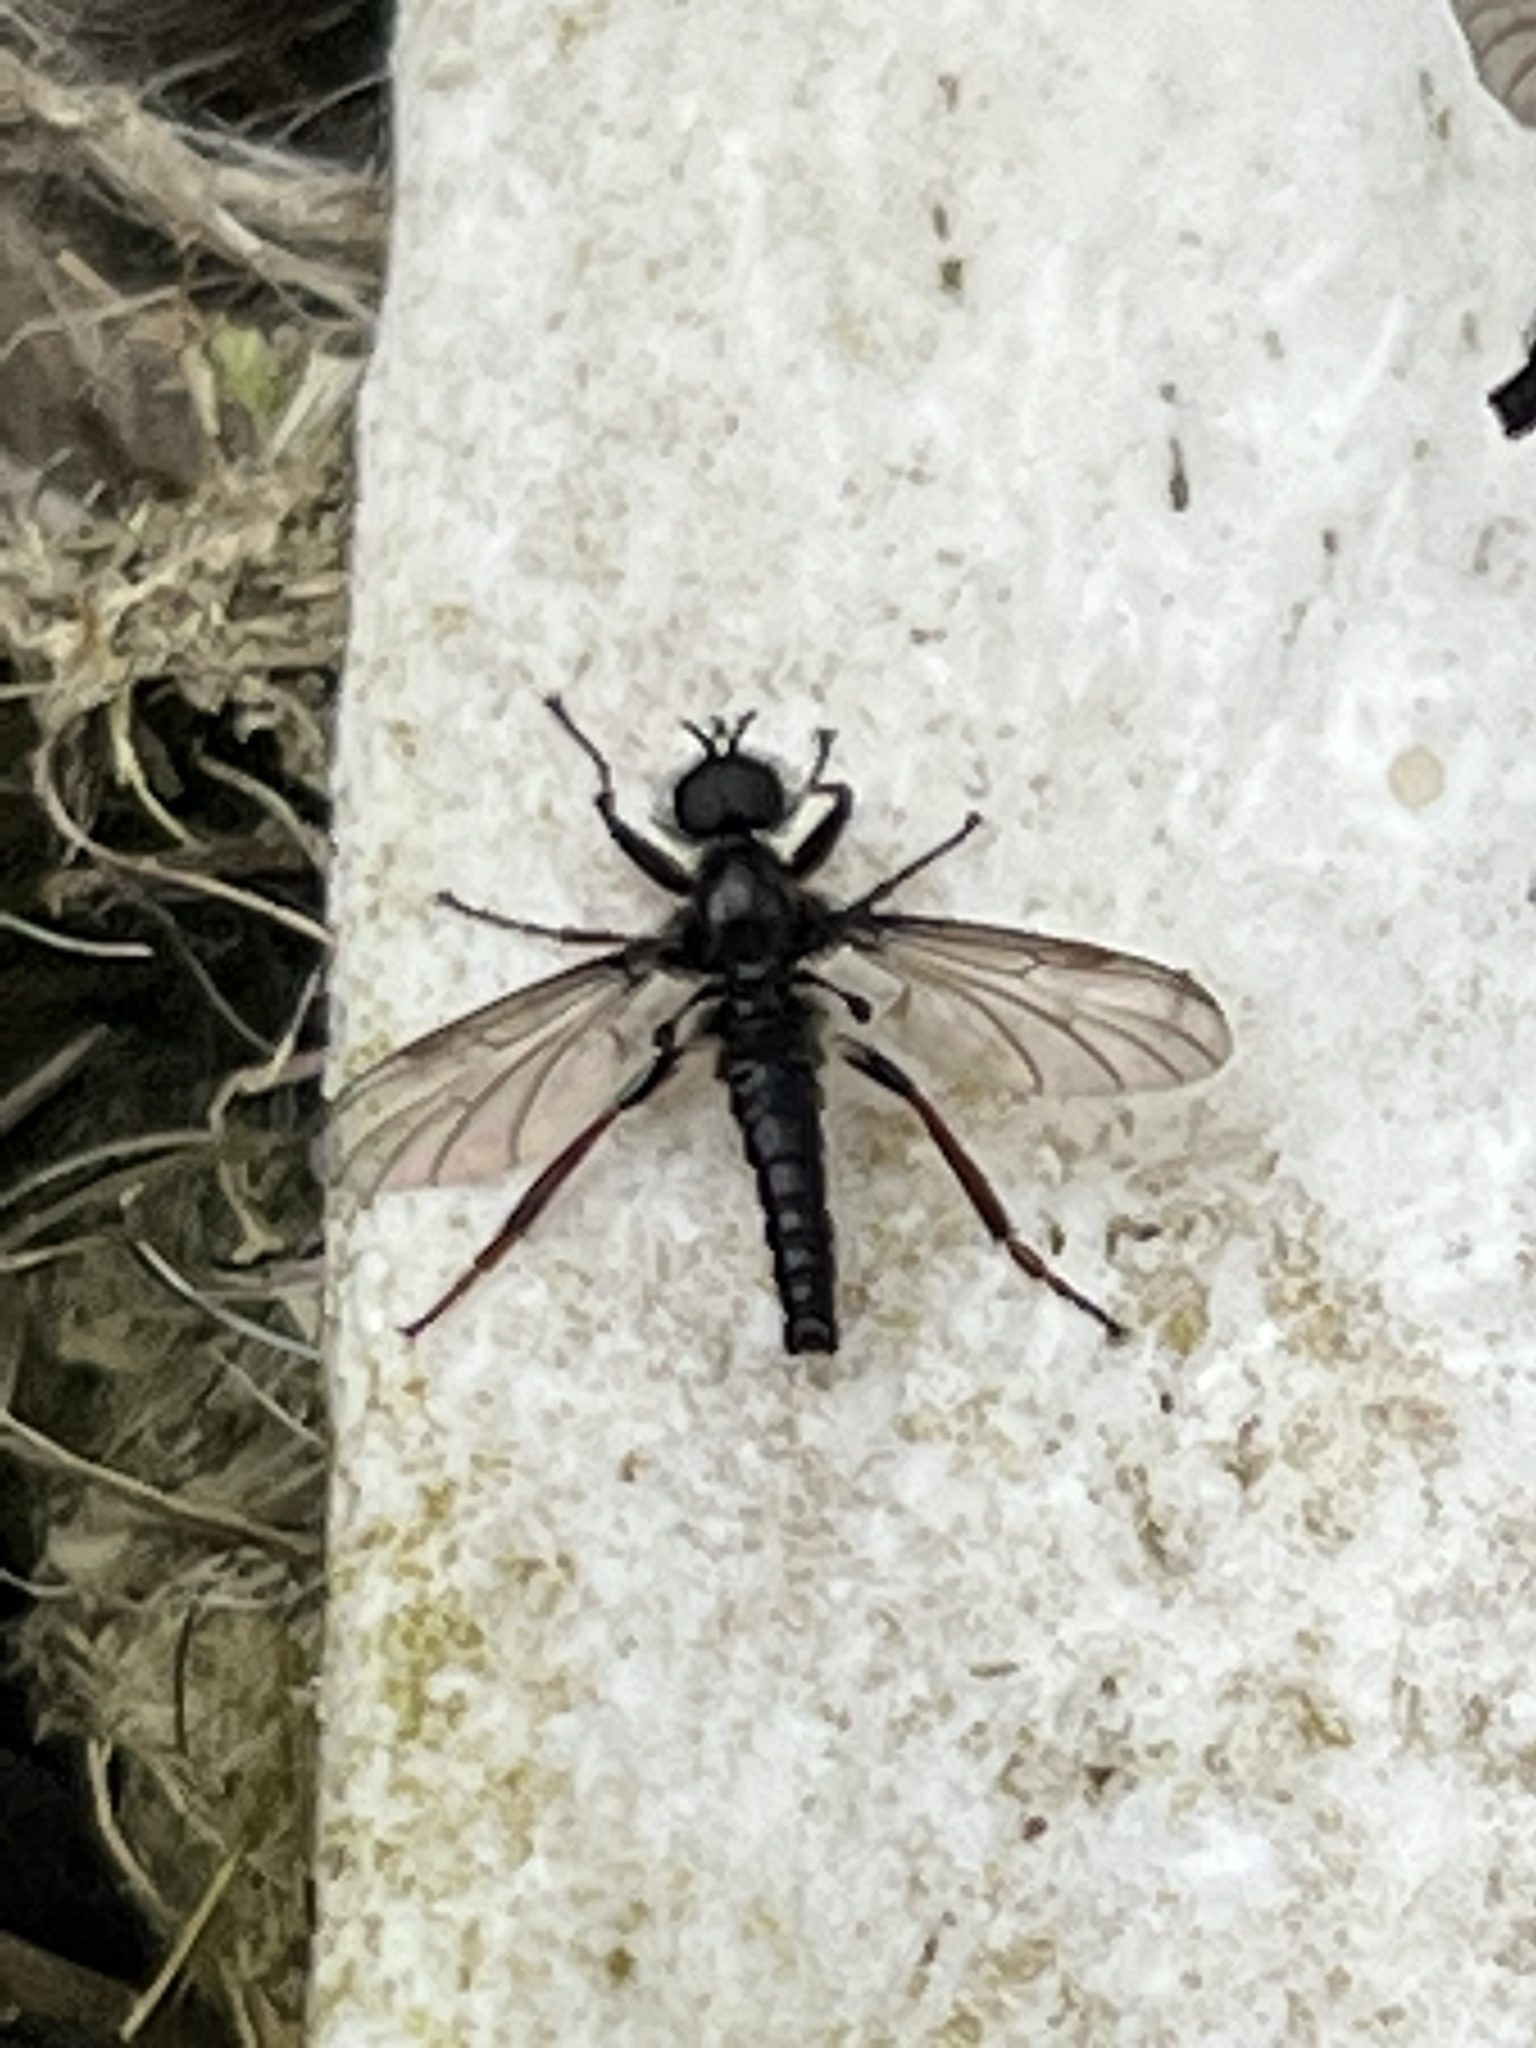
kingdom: Animalia
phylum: Arthropoda
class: Insecta
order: Diptera
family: Bibionidae
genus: Bibio
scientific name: Bibio marci
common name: St marks fly
